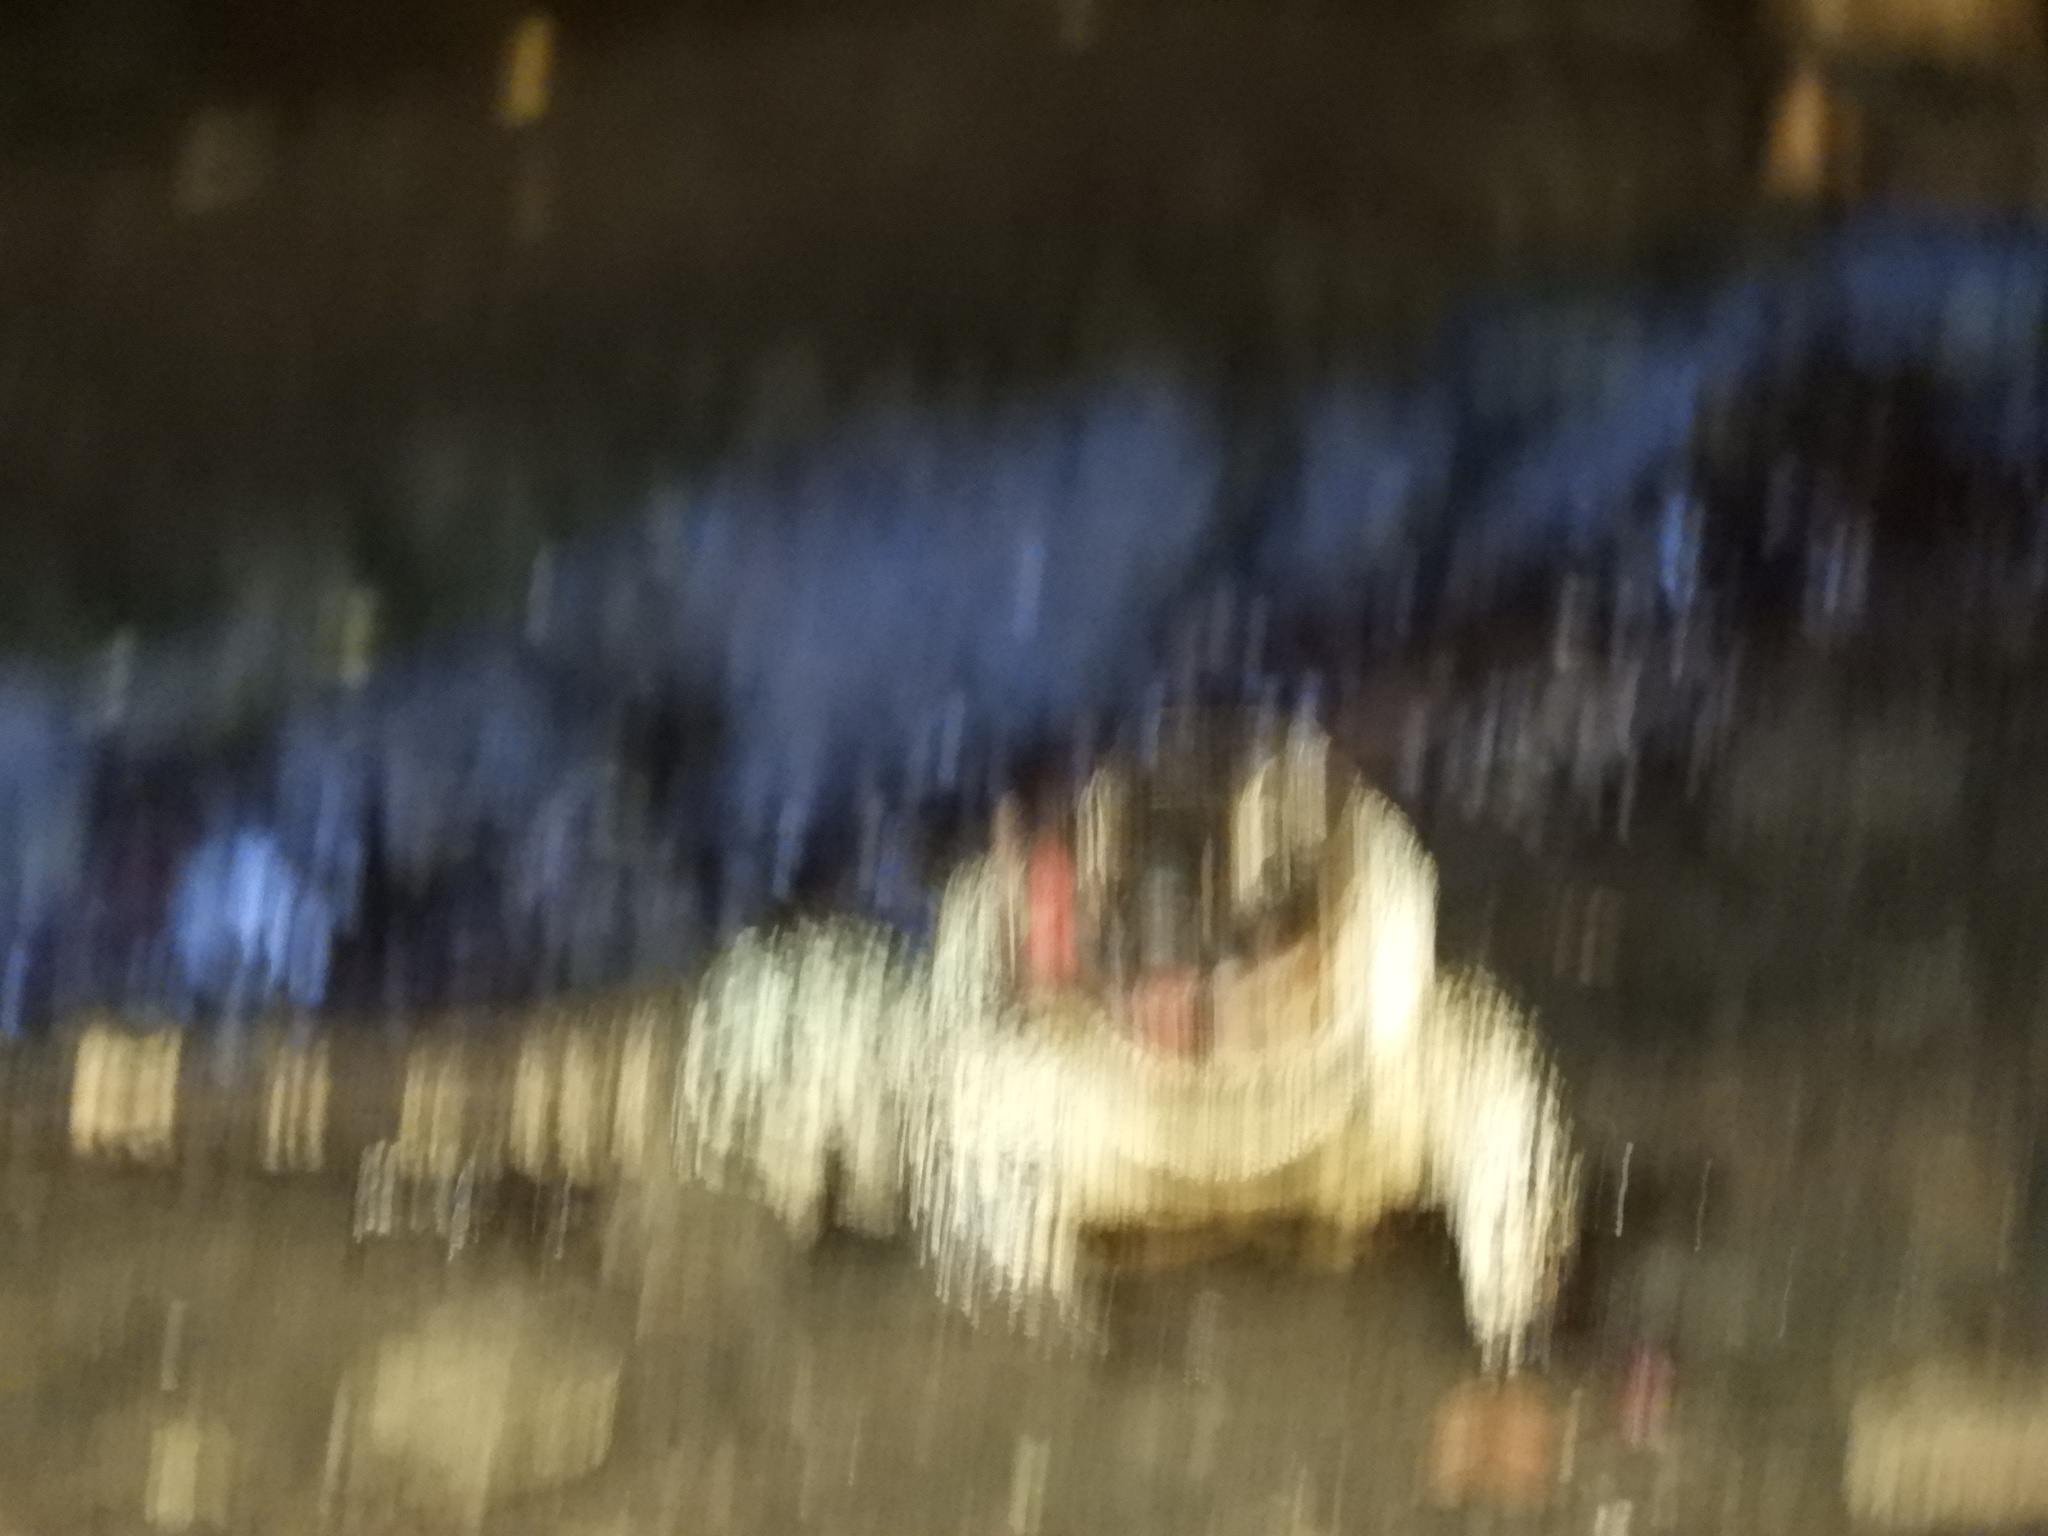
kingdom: Animalia
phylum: Chordata
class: Squamata
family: Teiidae
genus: Salvator
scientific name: Salvator merianae
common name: Argentine black and white tegu
